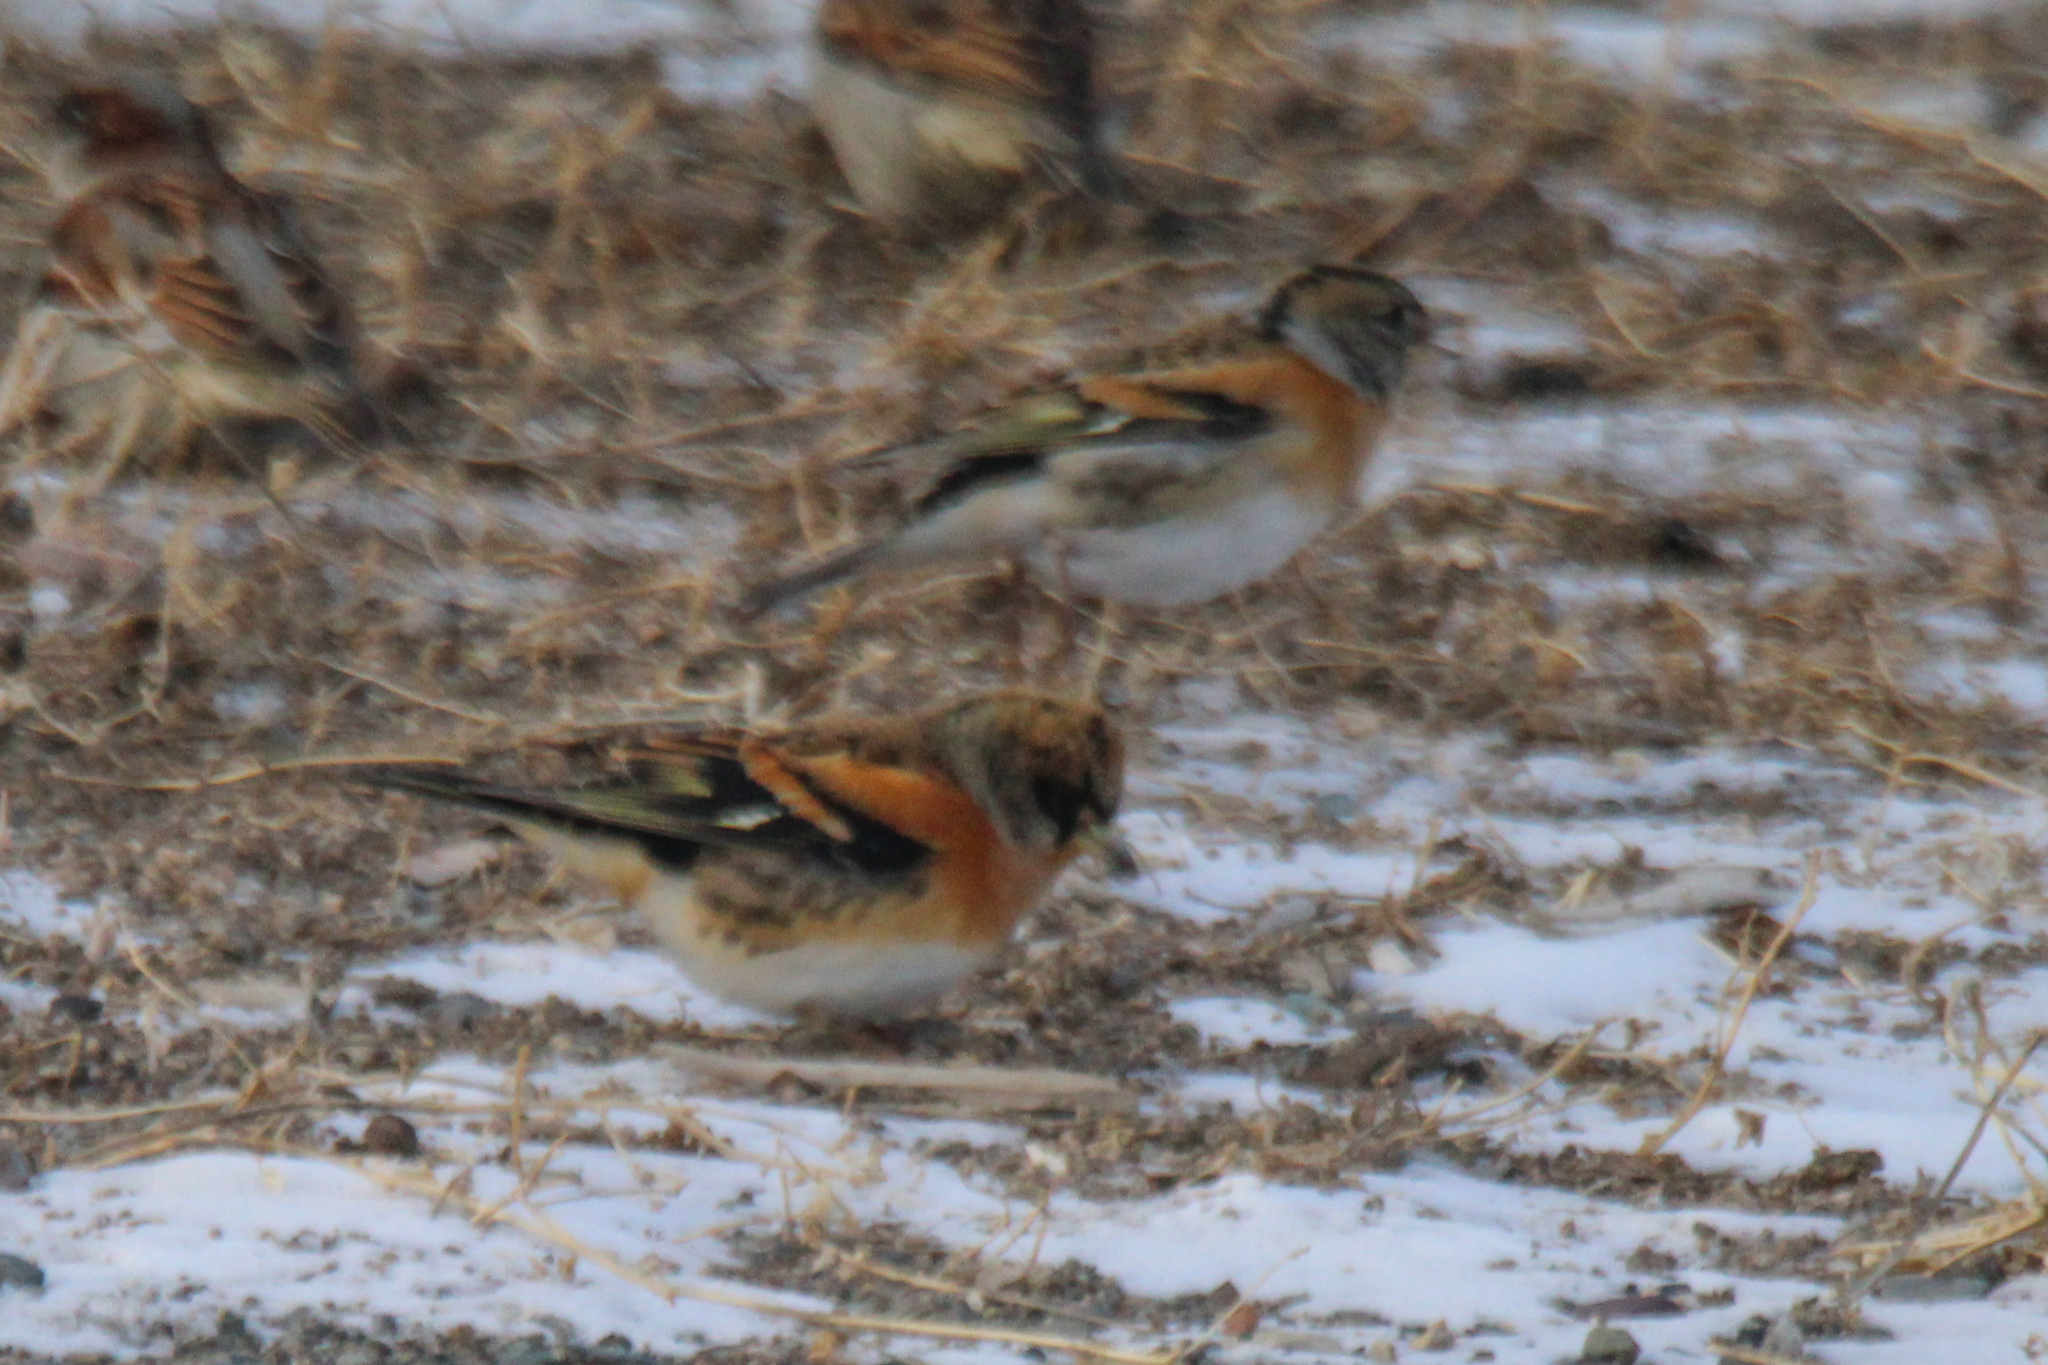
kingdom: Animalia
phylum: Chordata
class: Aves
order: Passeriformes
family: Fringillidae
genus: Fringilla
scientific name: Fringilla montifringilla
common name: Brambling
